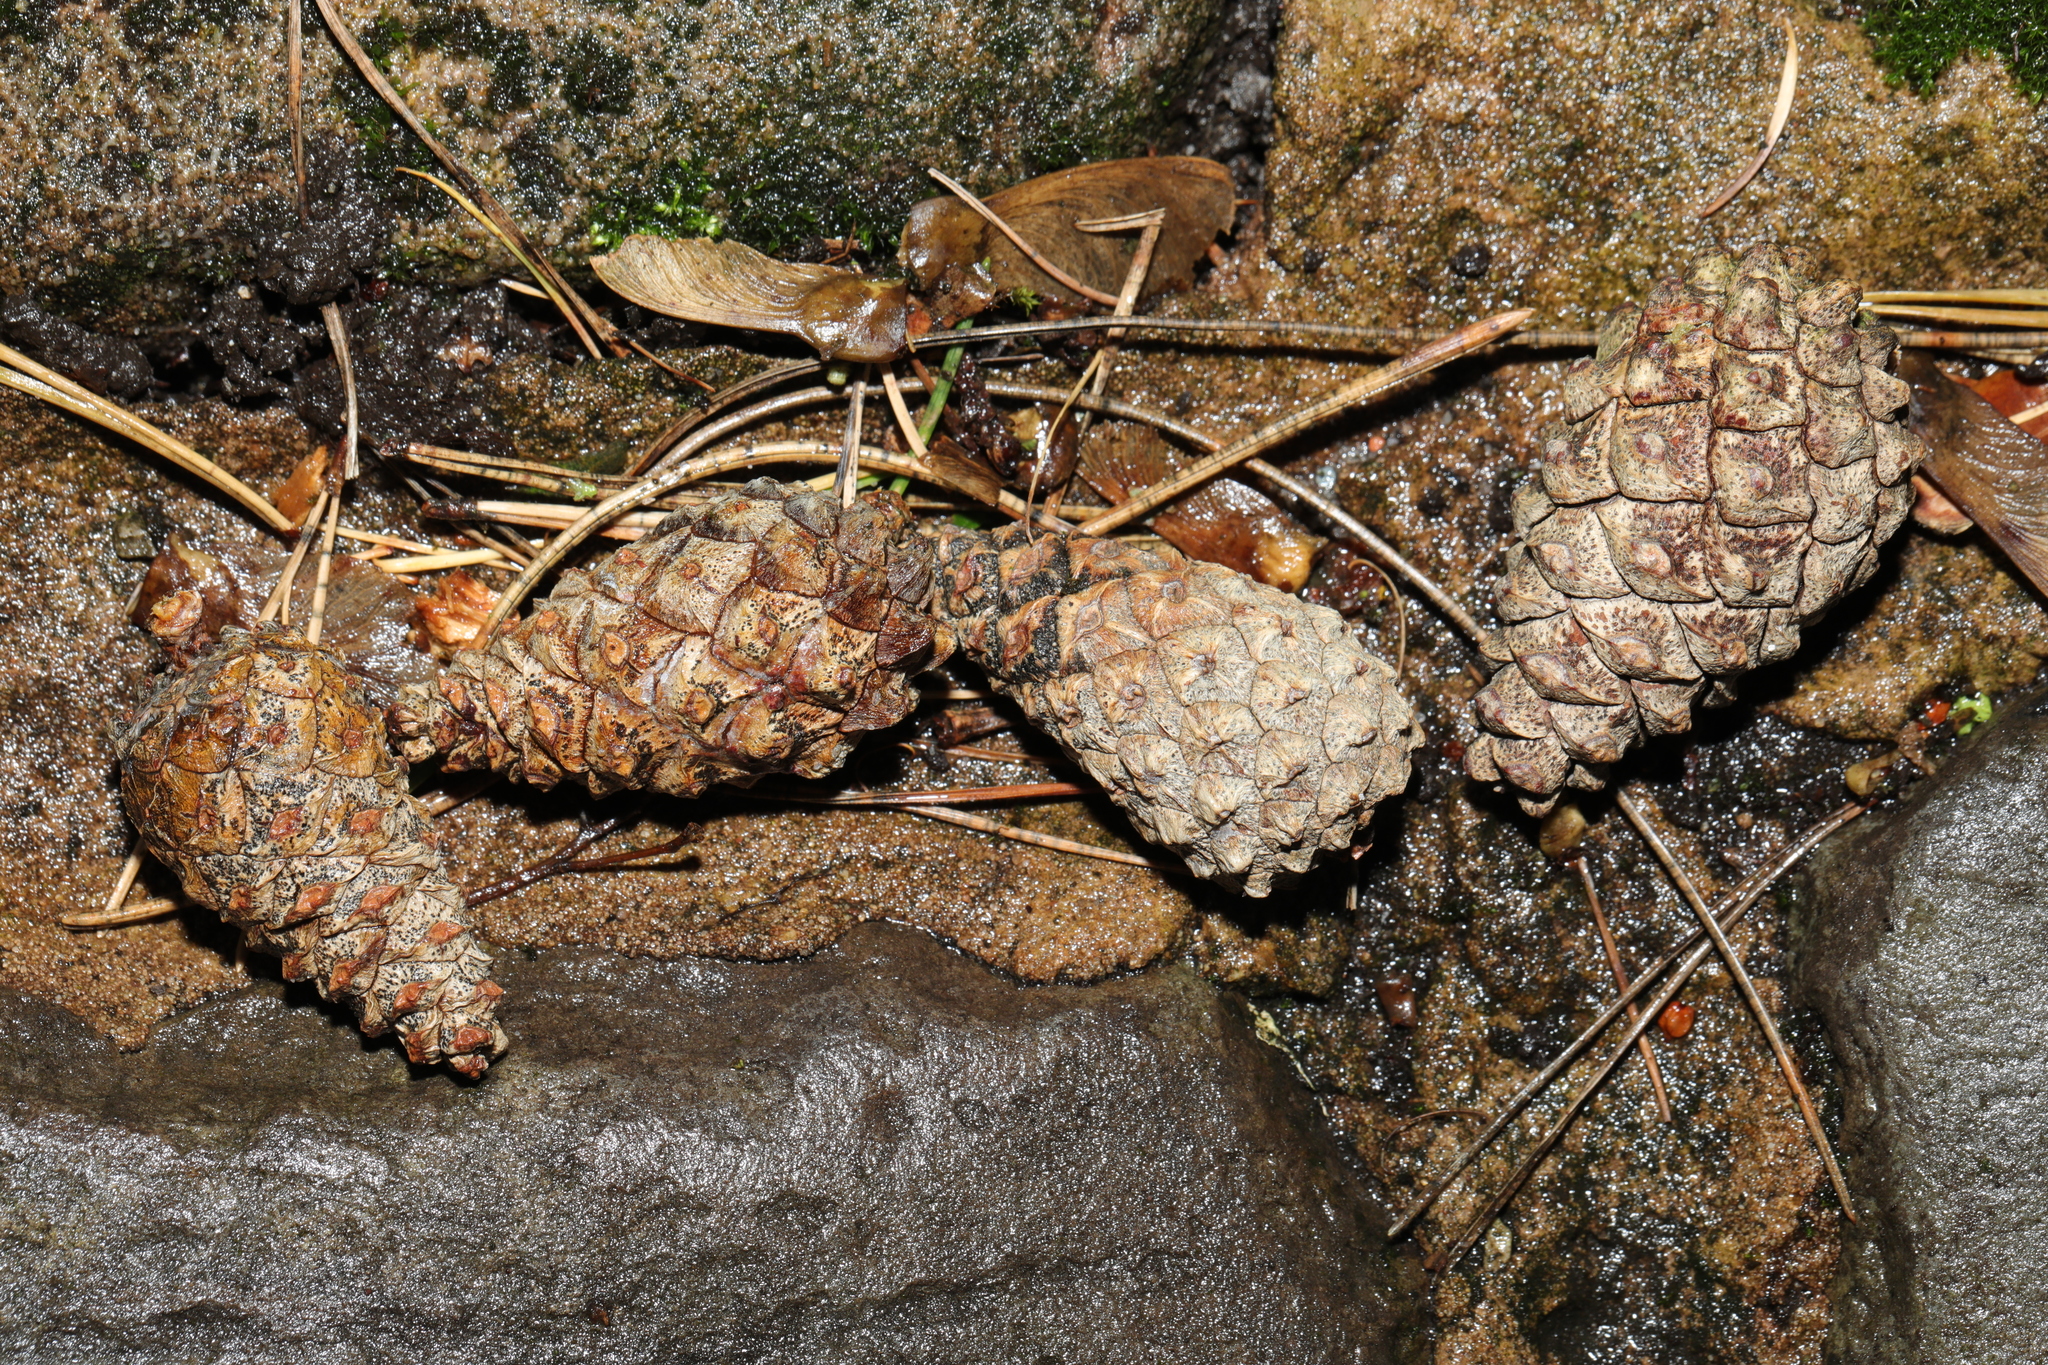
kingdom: Plantae
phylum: Tracheophyta
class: Pinopsida
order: Pinales
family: Pinaceae
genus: Pinus
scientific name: Pinus sylvestris
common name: Scots pine
